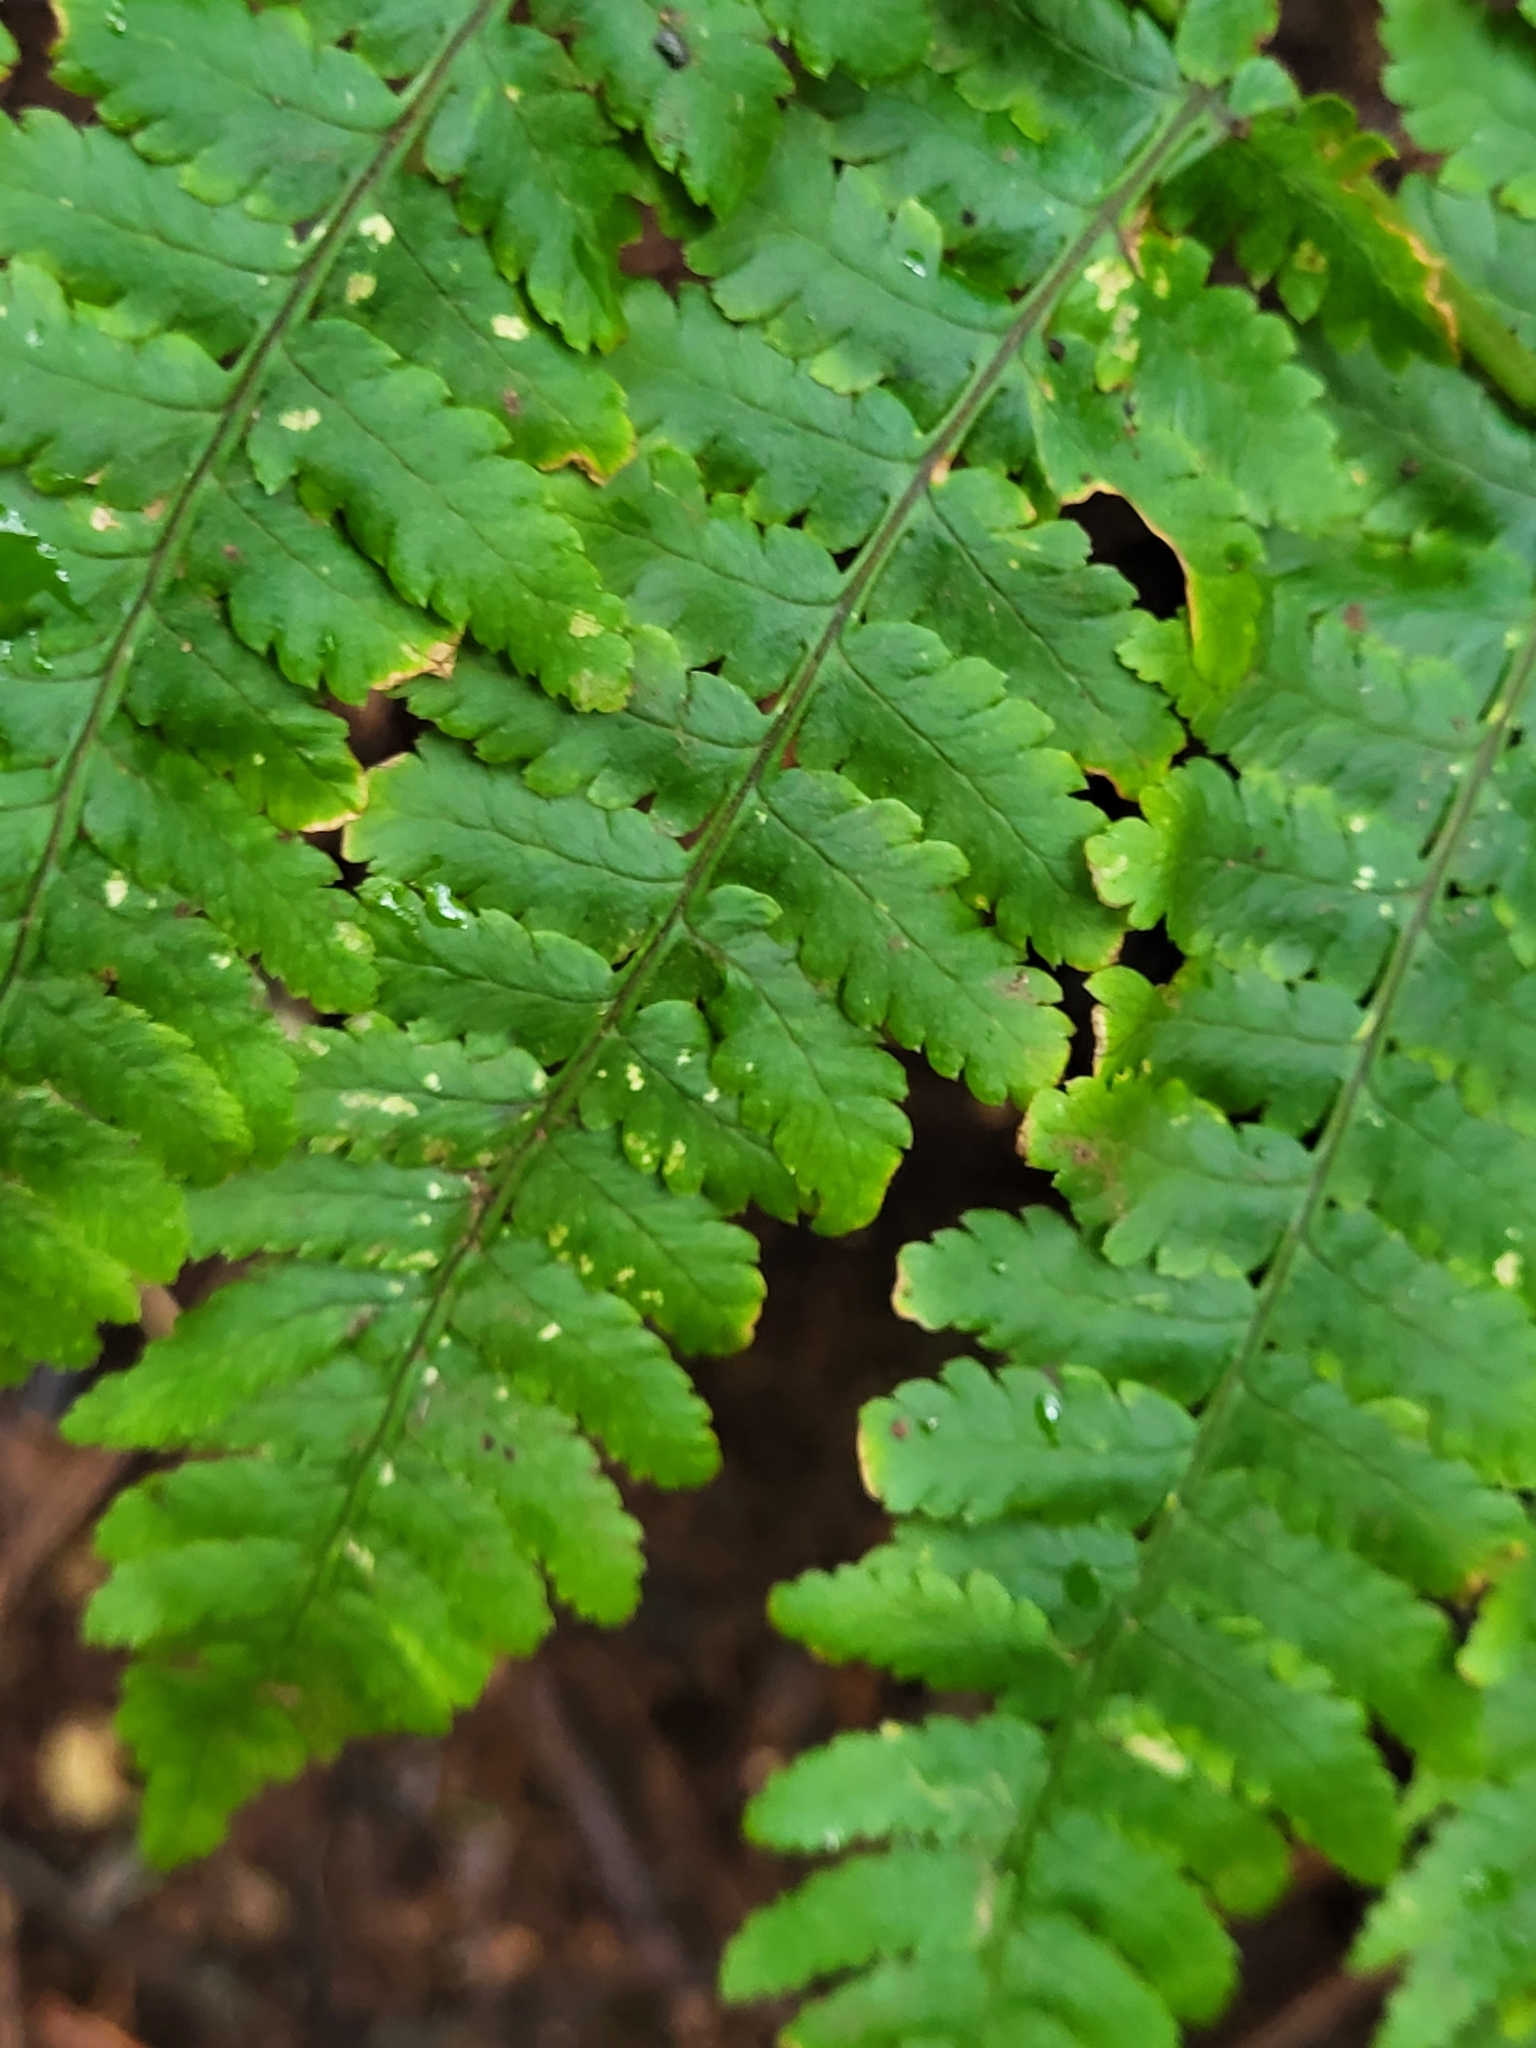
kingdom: Plantae
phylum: Tracheophyta
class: Polypodiopsida
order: Polypodiales
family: Dryopteridaceae
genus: Dryopteris
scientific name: Dryopteris oligodonta
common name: Canarian male-fern
